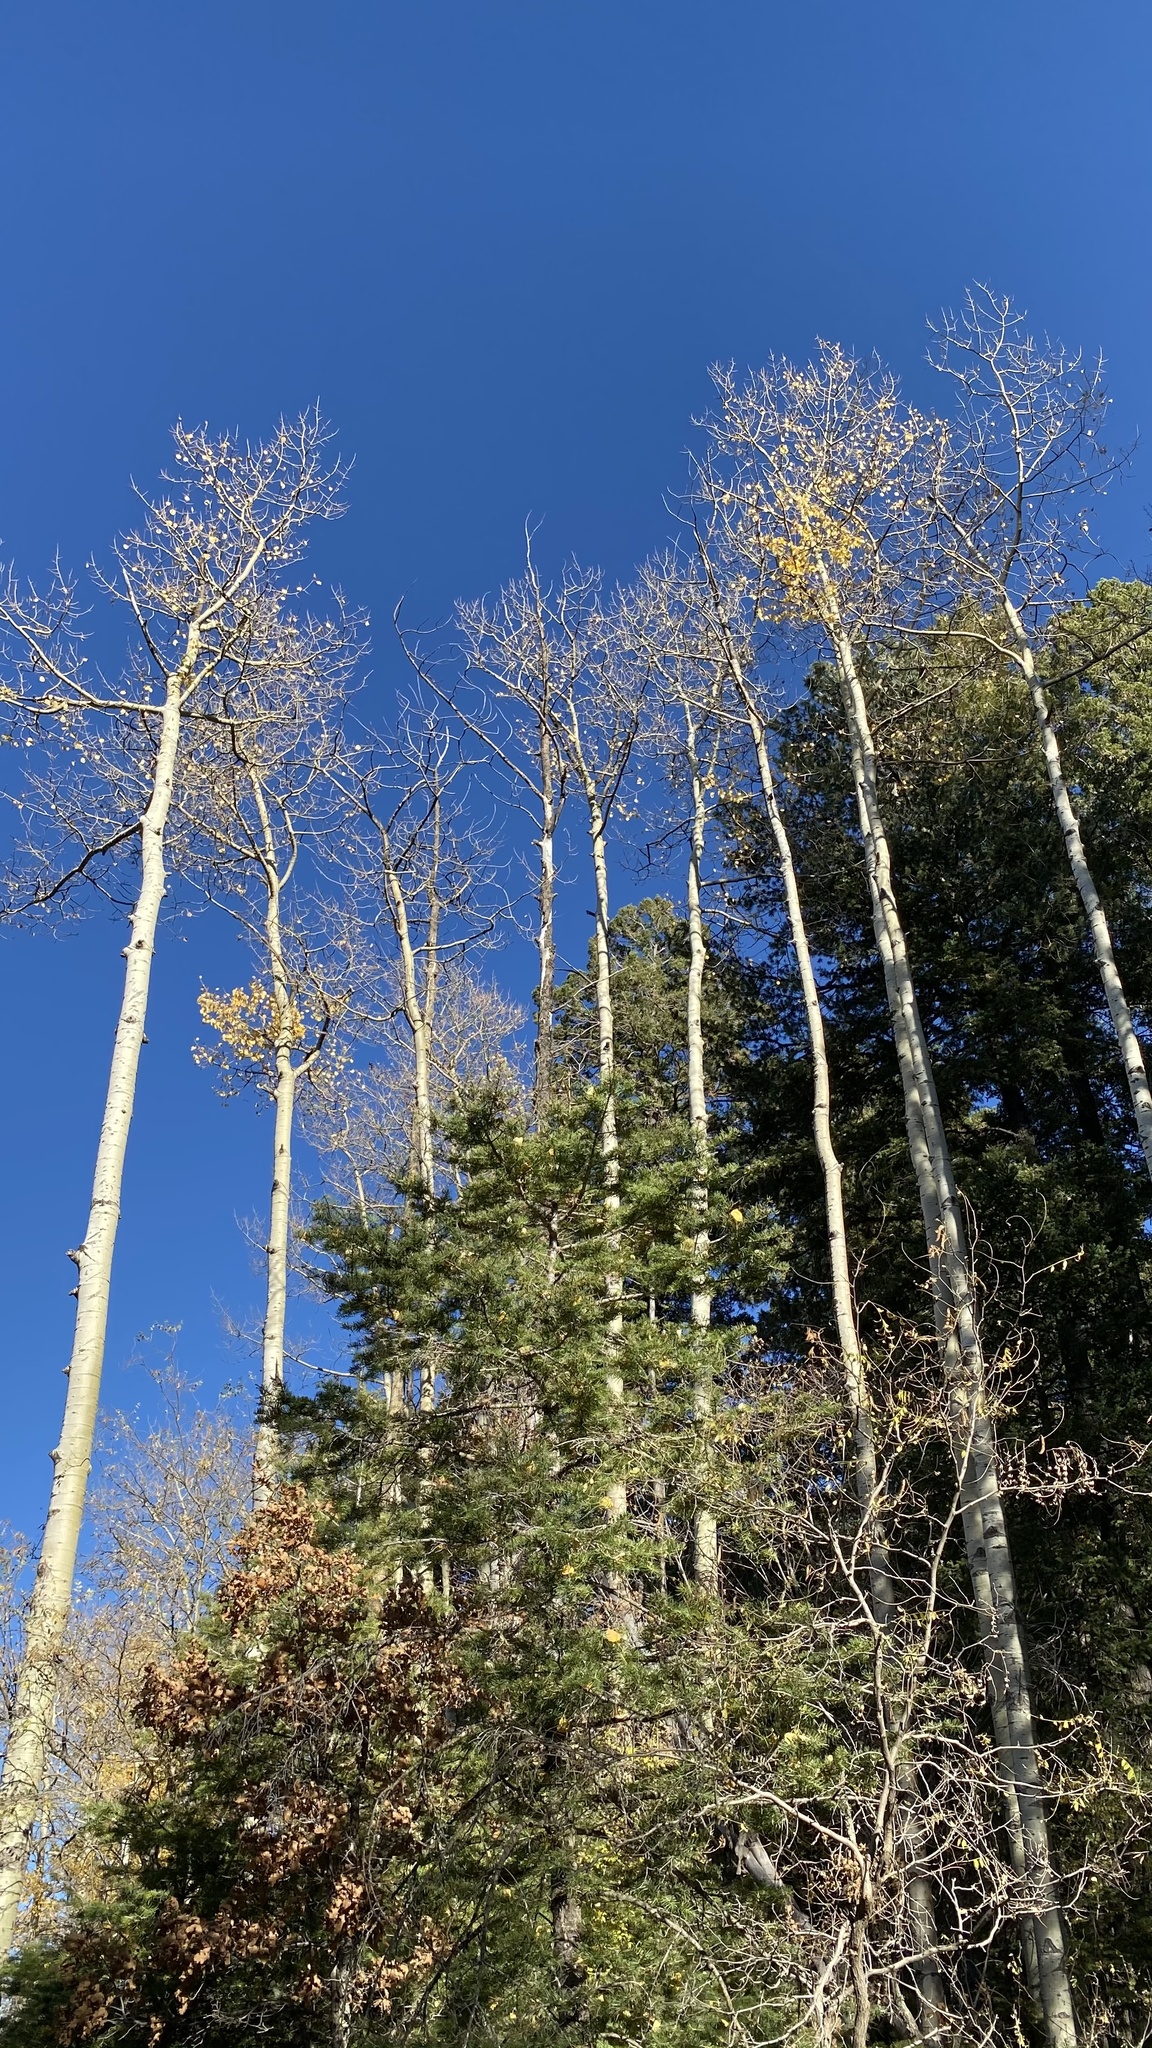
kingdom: Plantae
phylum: Tracheophyta
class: Magnoliopsida
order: Malpighiales
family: Salicaceae
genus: Populus
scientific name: Populus tremuloides
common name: Quaking aspen
